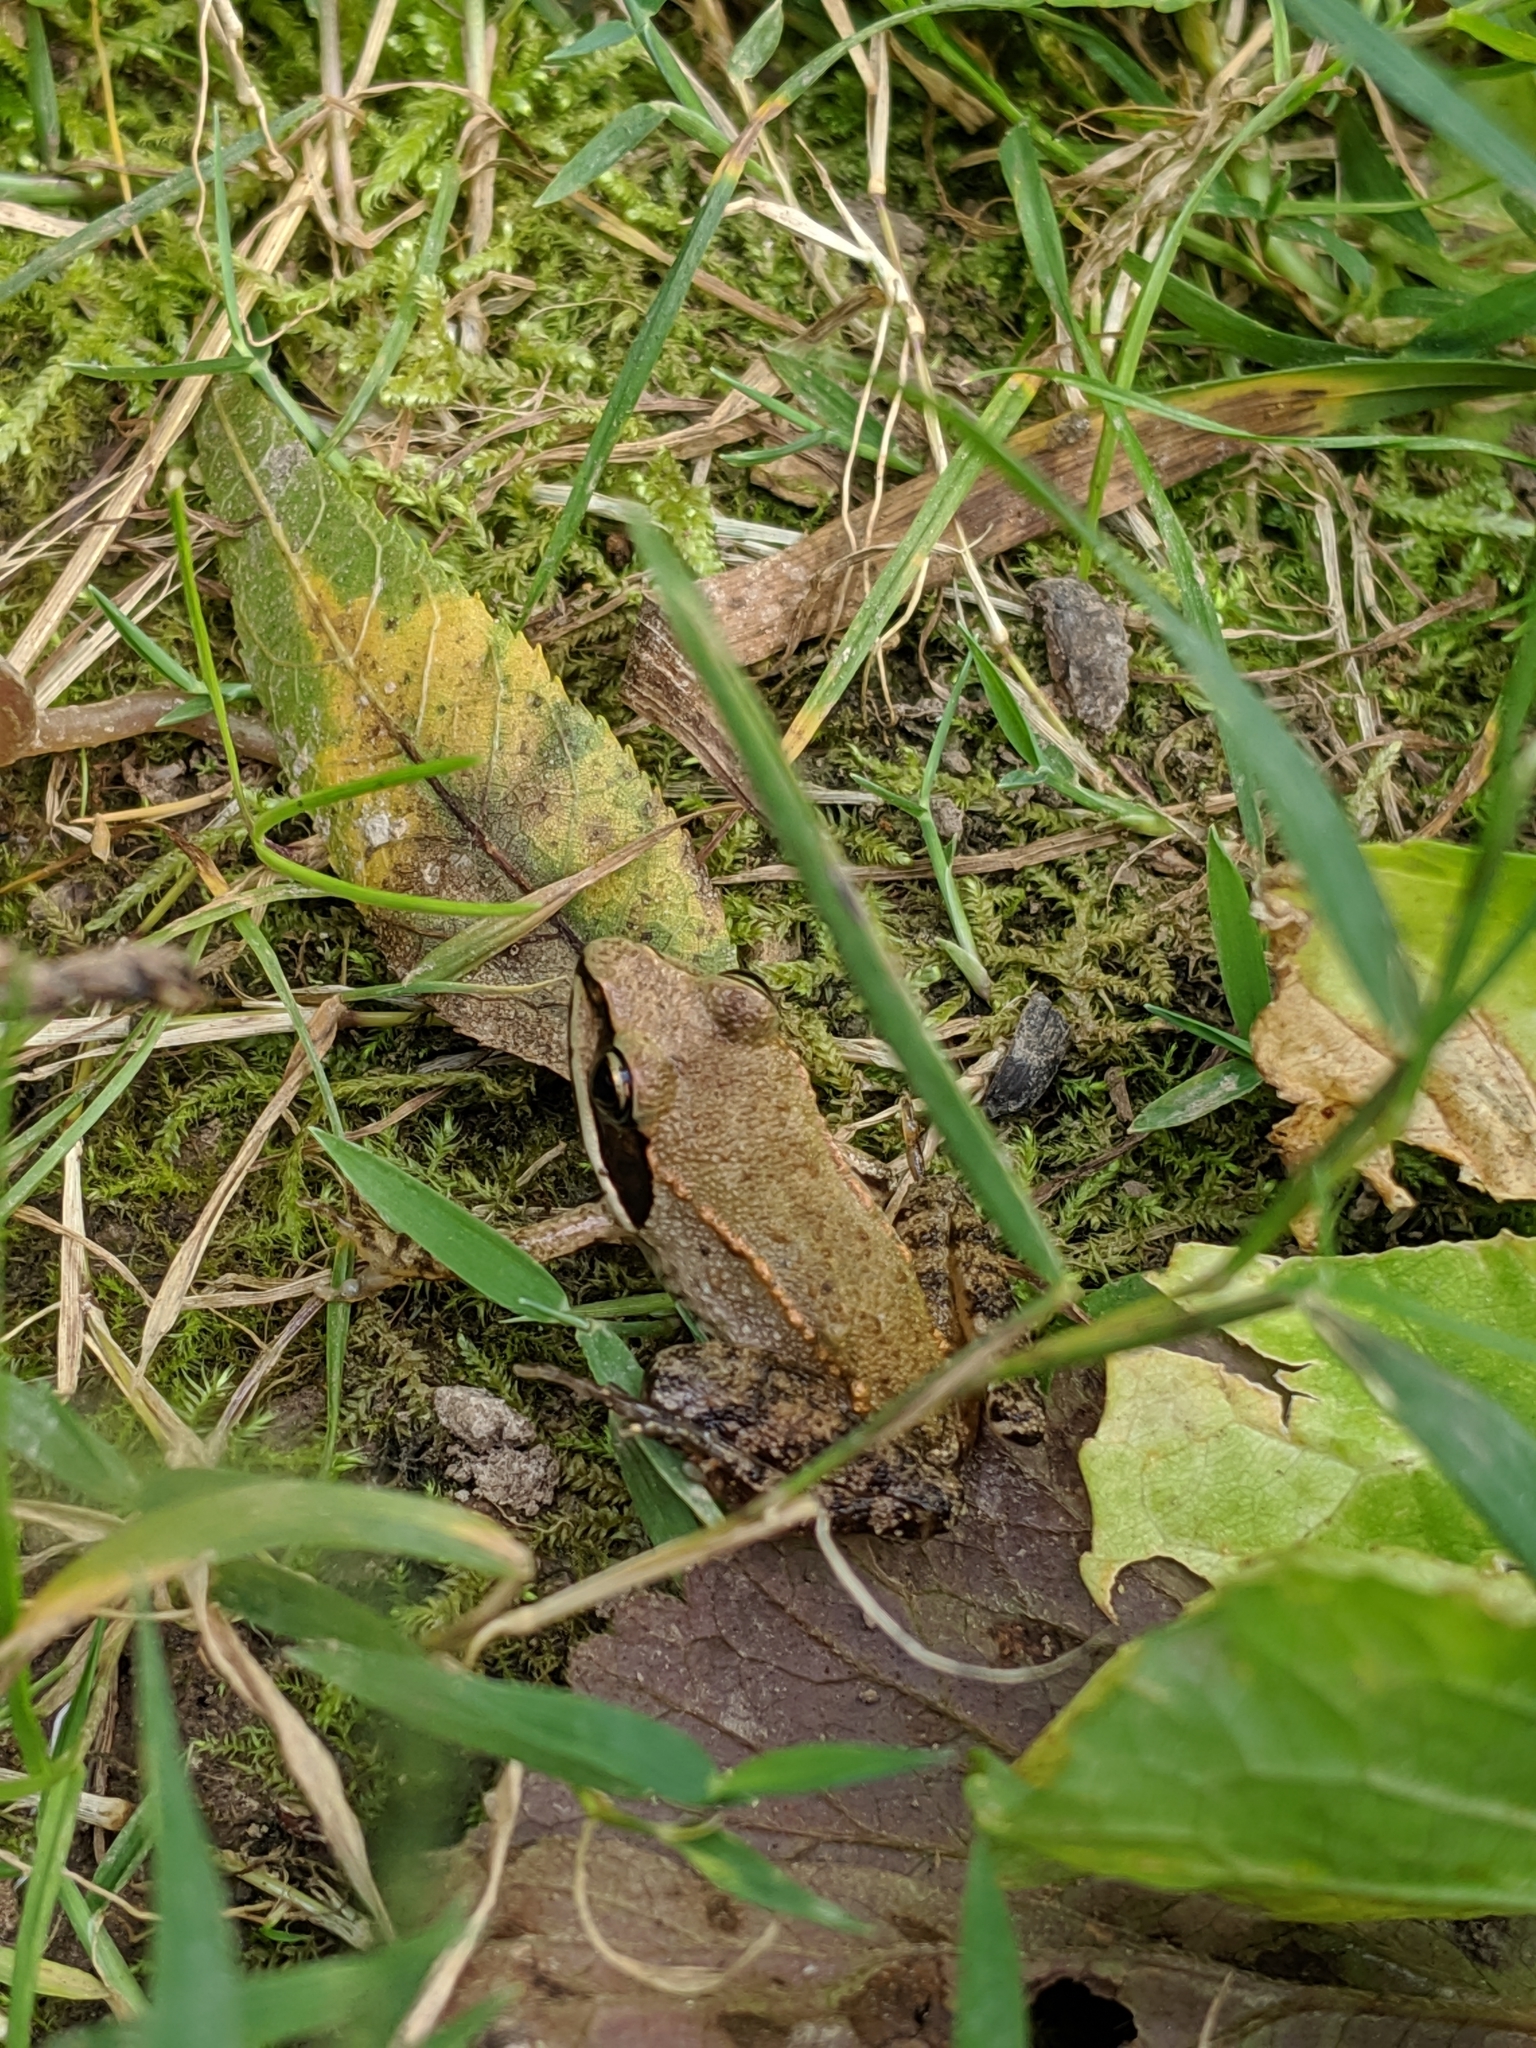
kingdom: Animalia
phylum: Chordata
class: Amphibia
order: Anura
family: Ranidae
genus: Lithobates
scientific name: Lithobates sylvaticus
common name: Wood frog
